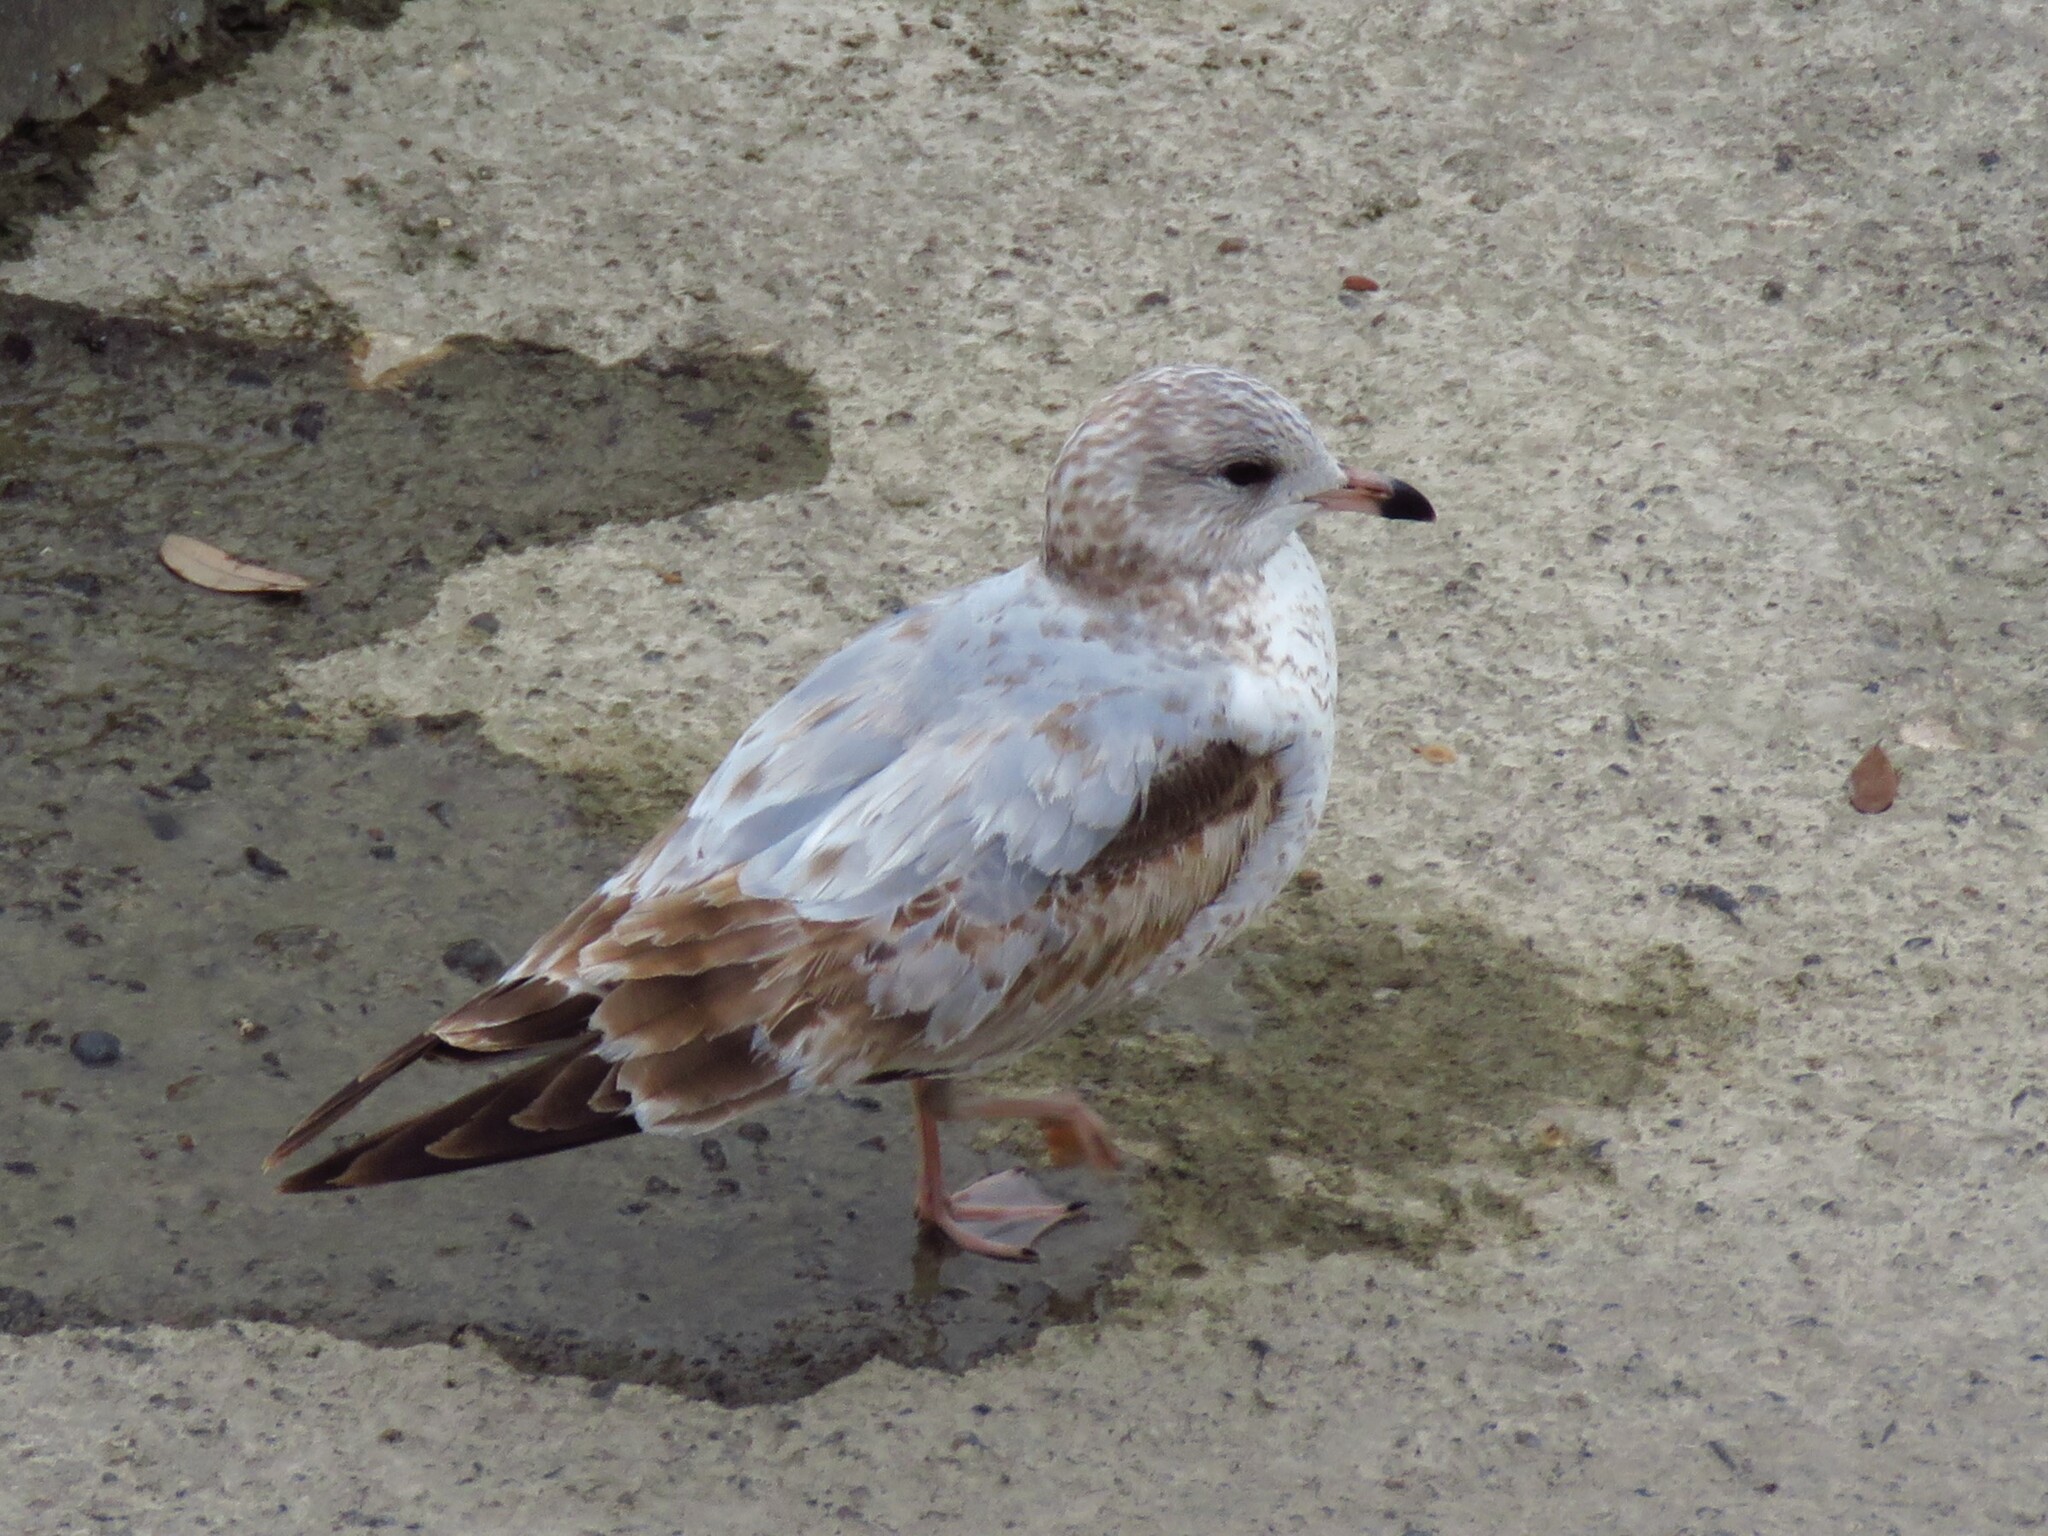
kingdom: Animalia
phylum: Chordata
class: Aves
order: Charadriiformes
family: Laridae
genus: Larus
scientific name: Larus delawarensis
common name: Ring-billed gull
